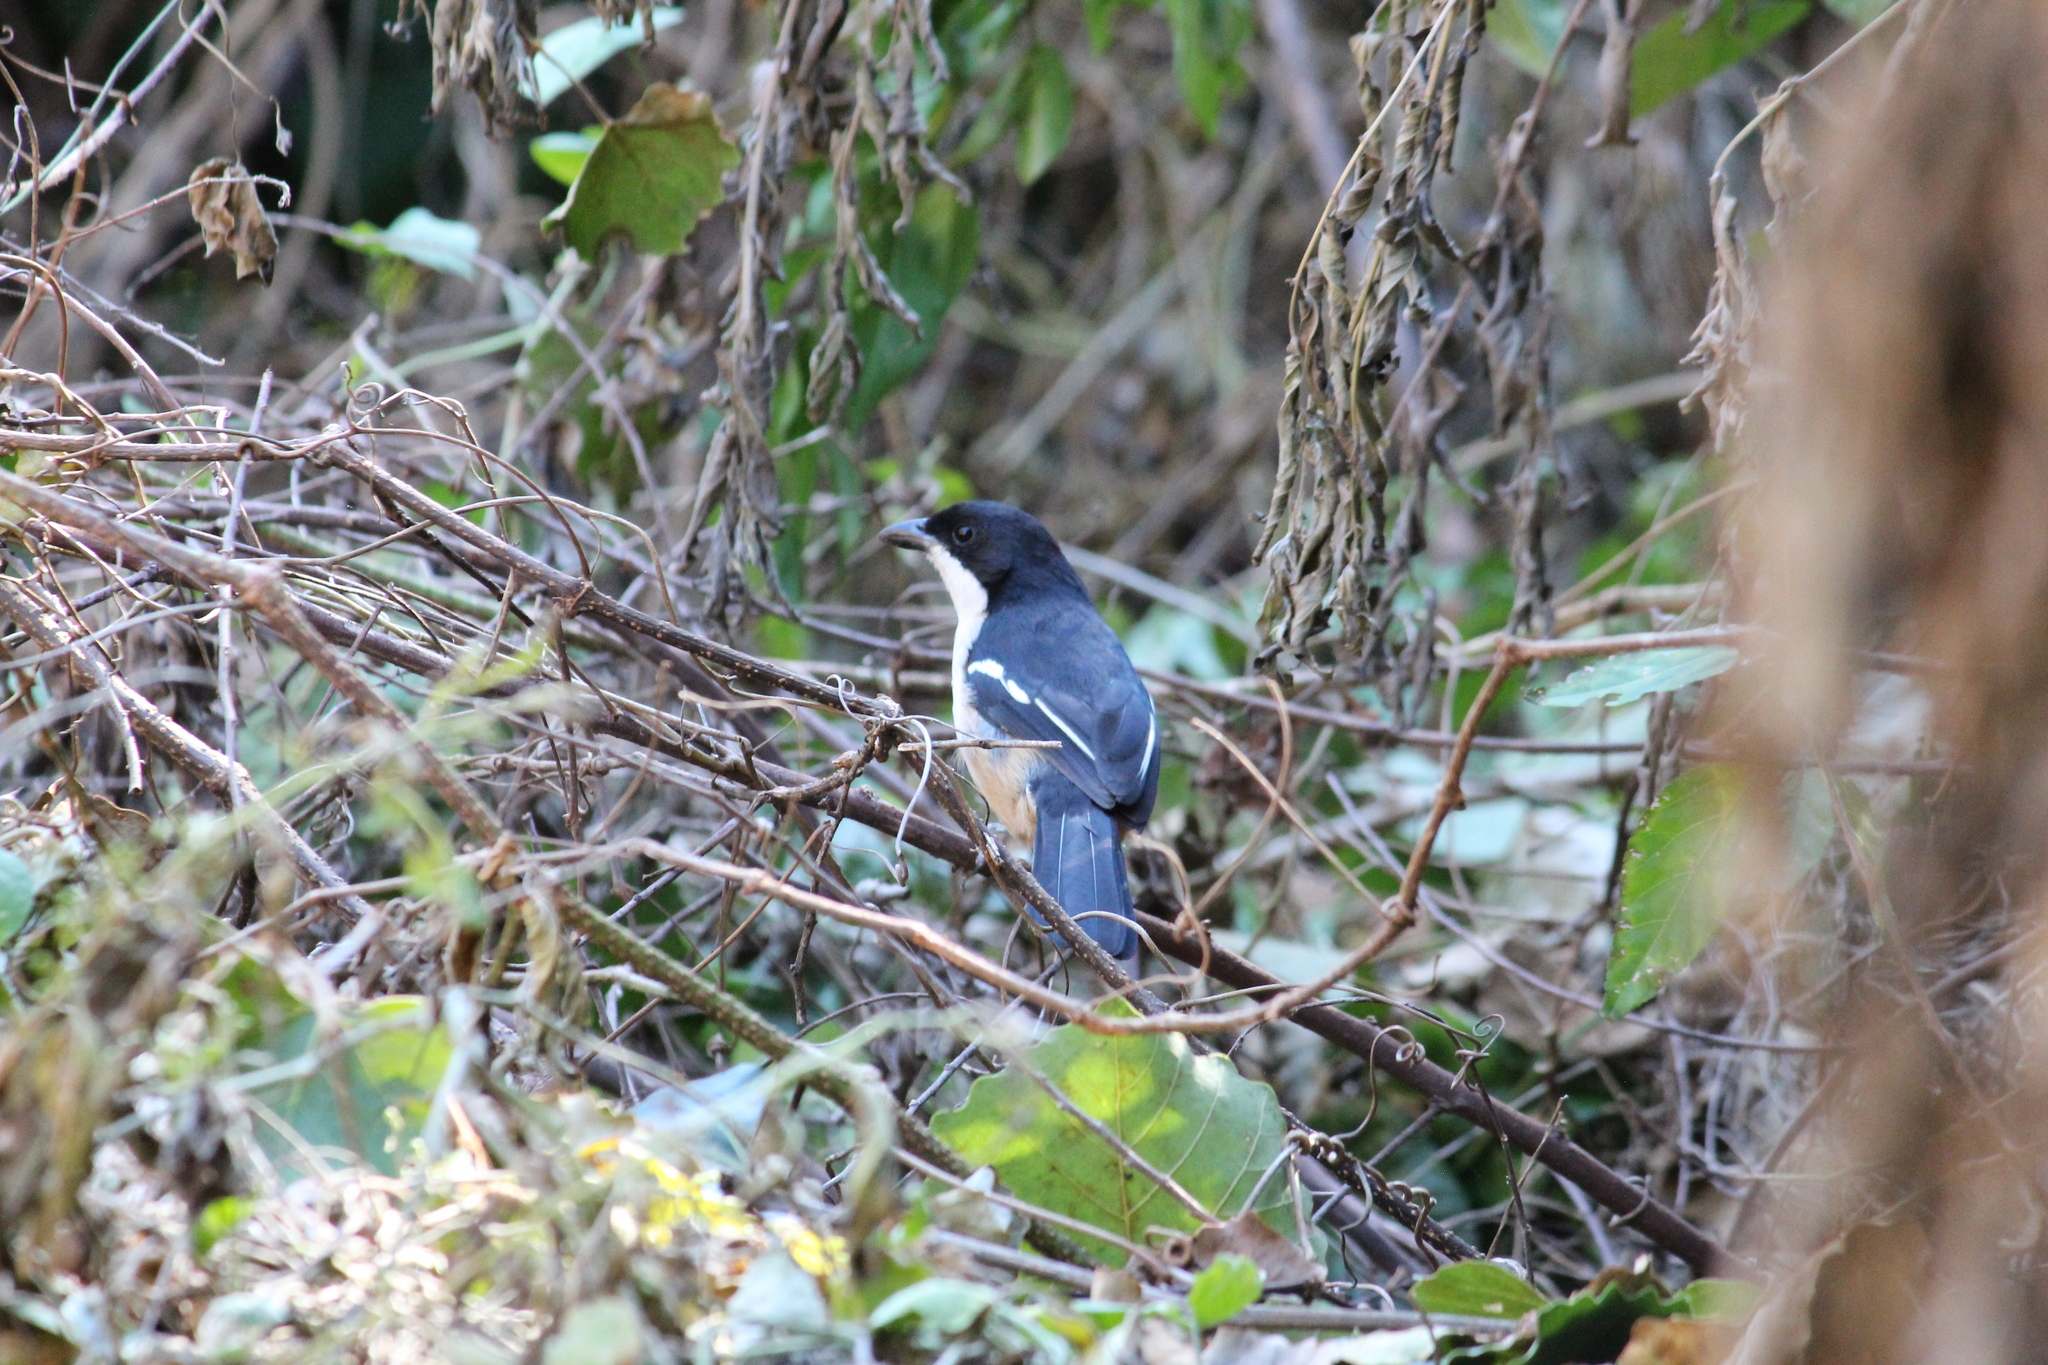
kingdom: Animalia
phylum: Chordata
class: Aves
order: Passeriformes
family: Malaconotidae
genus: Laniarius
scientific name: Laniarius ferrugineus
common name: Southern boubou
